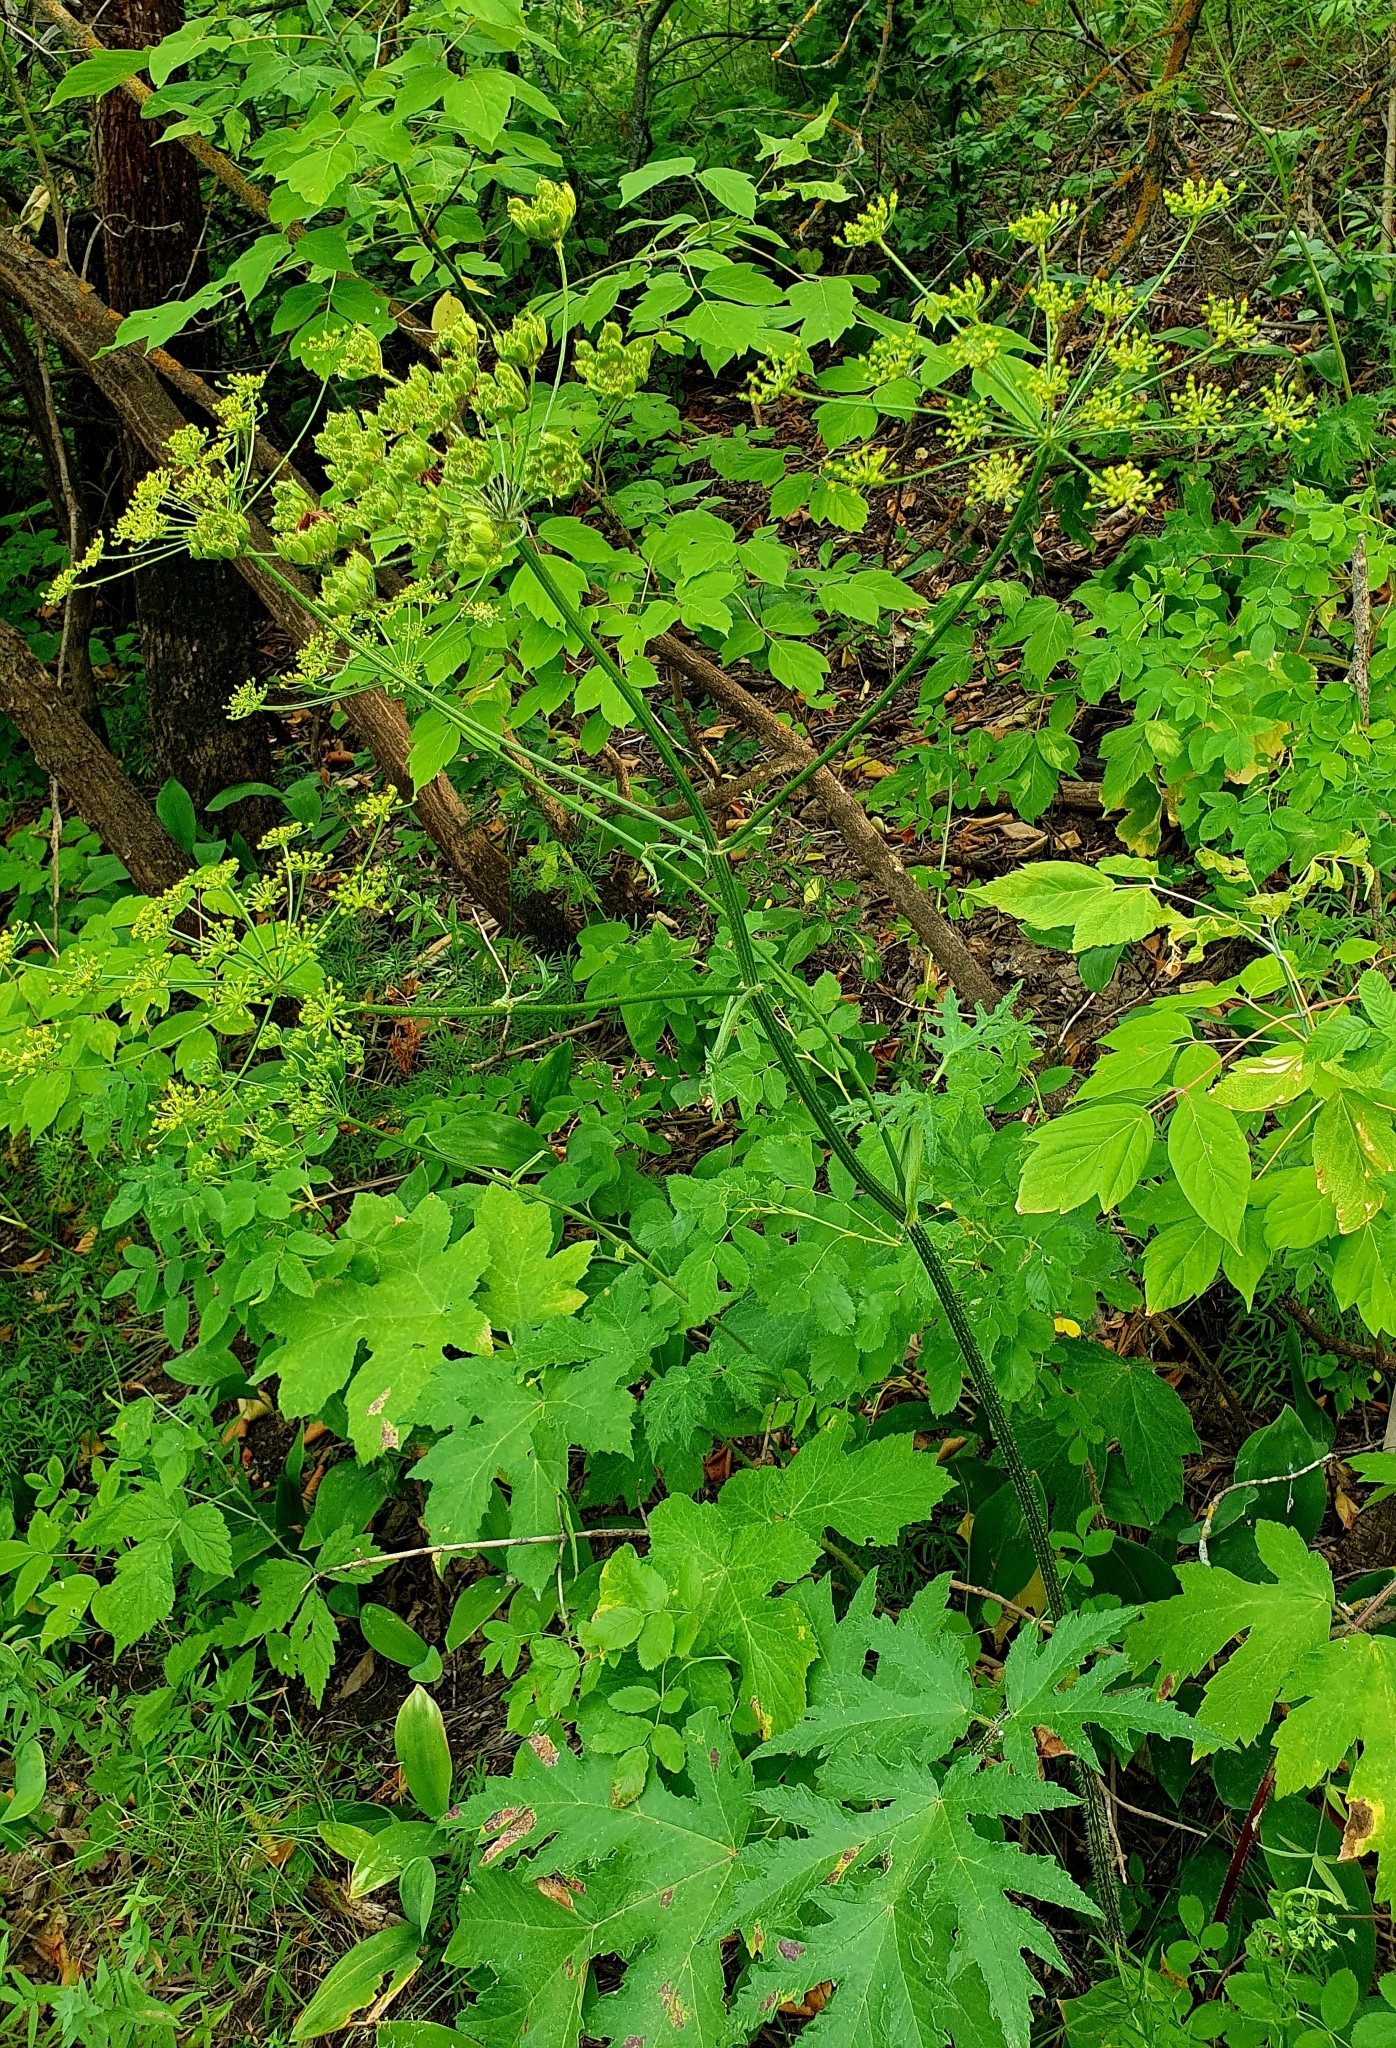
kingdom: Plantae
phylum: Tracheophyta
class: Magnoliopsida
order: Apiales
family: Apiaceae
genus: Heracleum
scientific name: Heracleum sphondylium
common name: Hogweed
